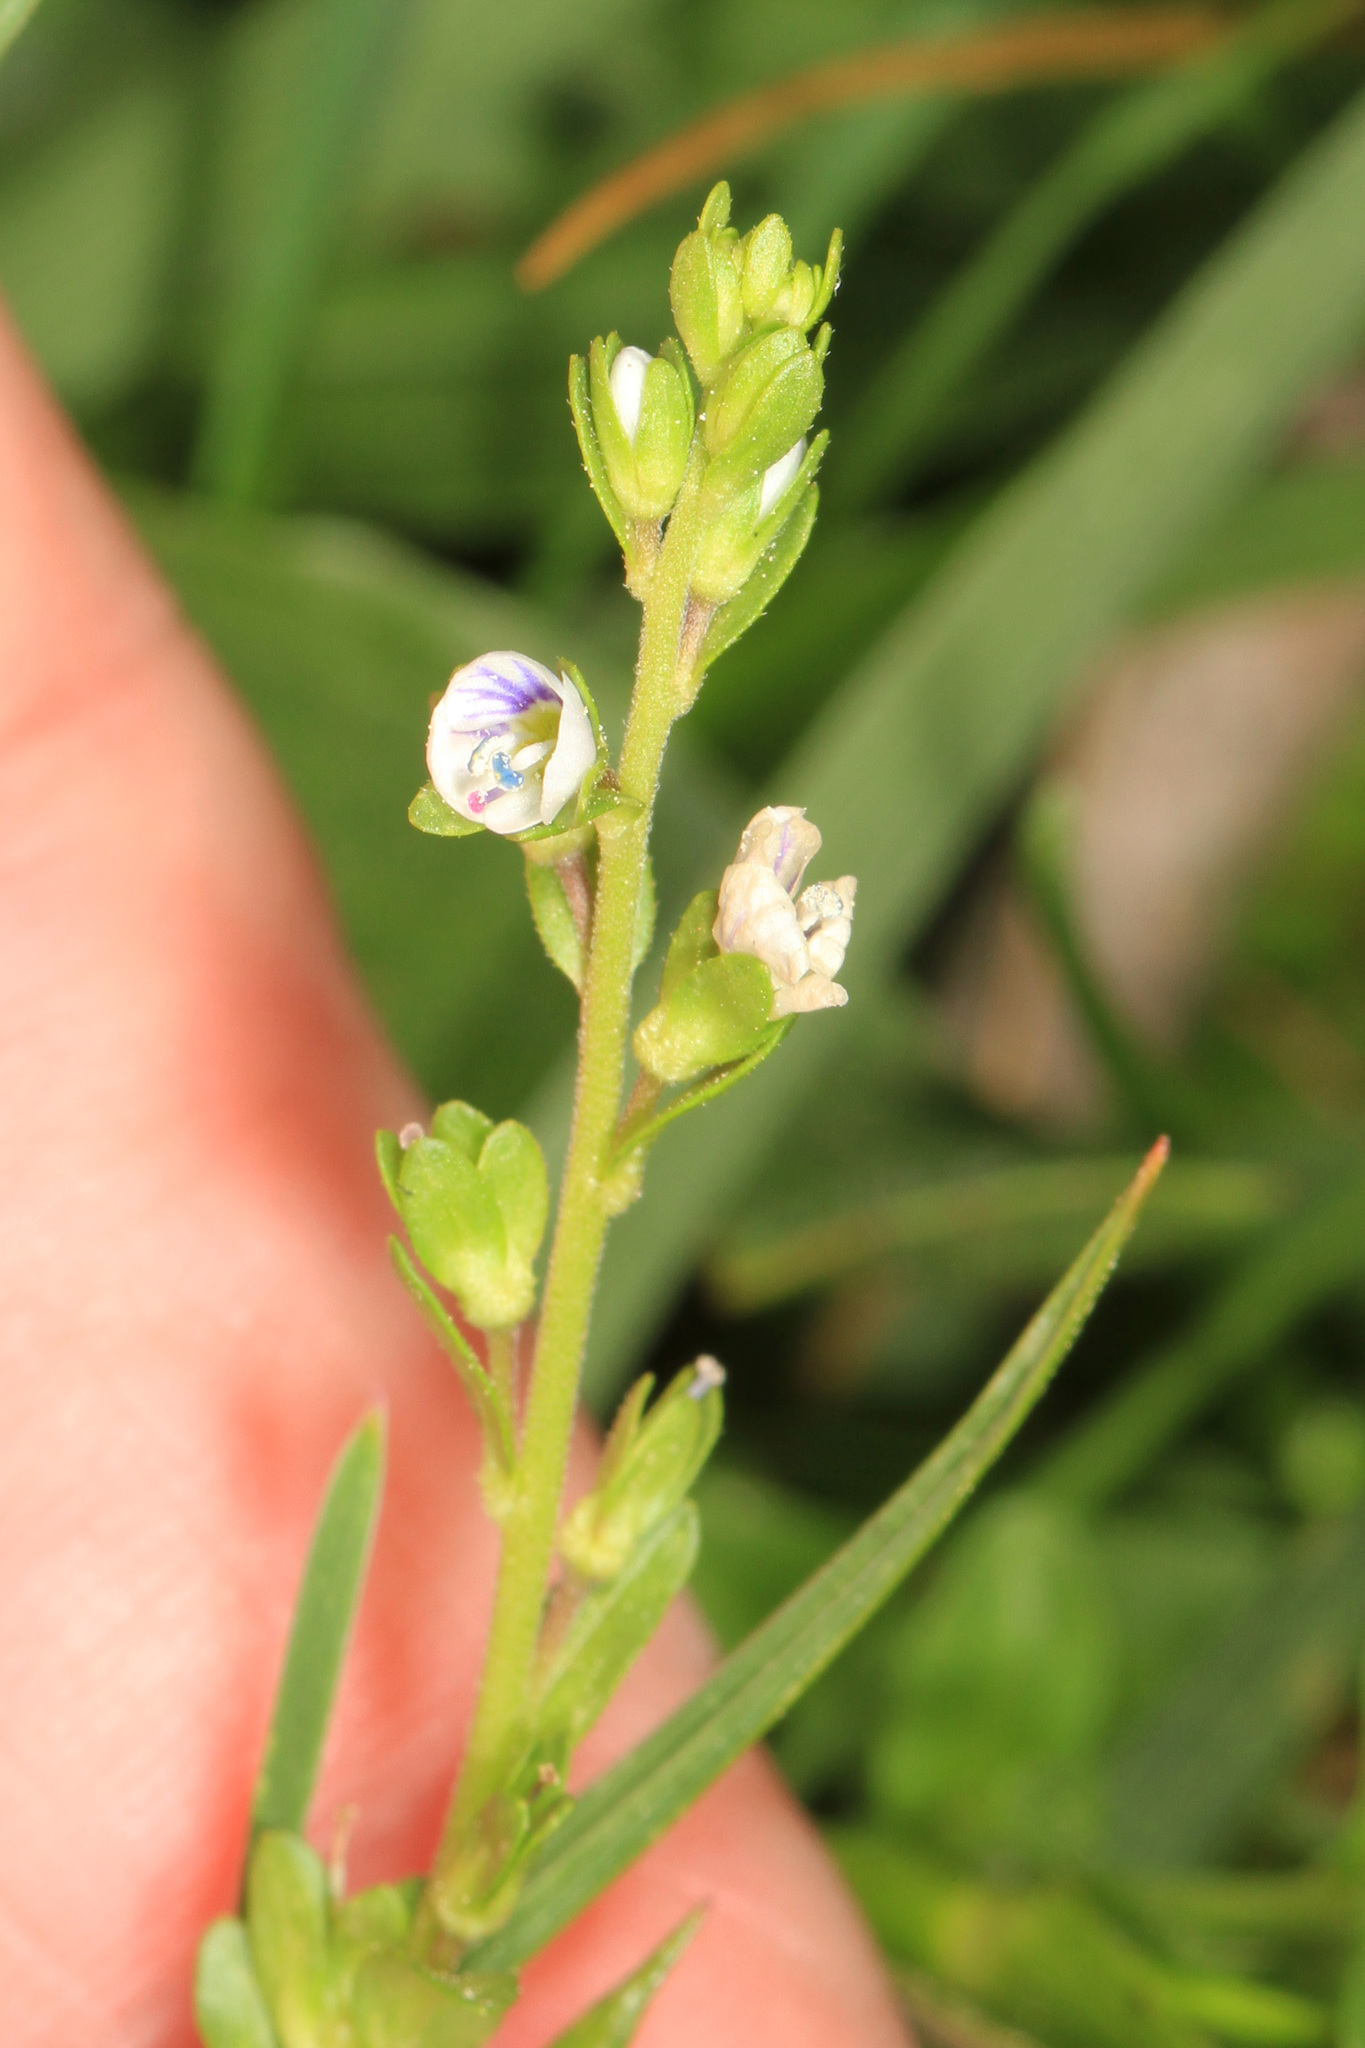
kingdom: Plantae
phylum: Tracheophyta
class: Magnoliopsida
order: Lamiales
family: Plantaginaceae
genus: Veronica
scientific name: Veronica serpyllifolia
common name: Thyme-leaved speedwell
